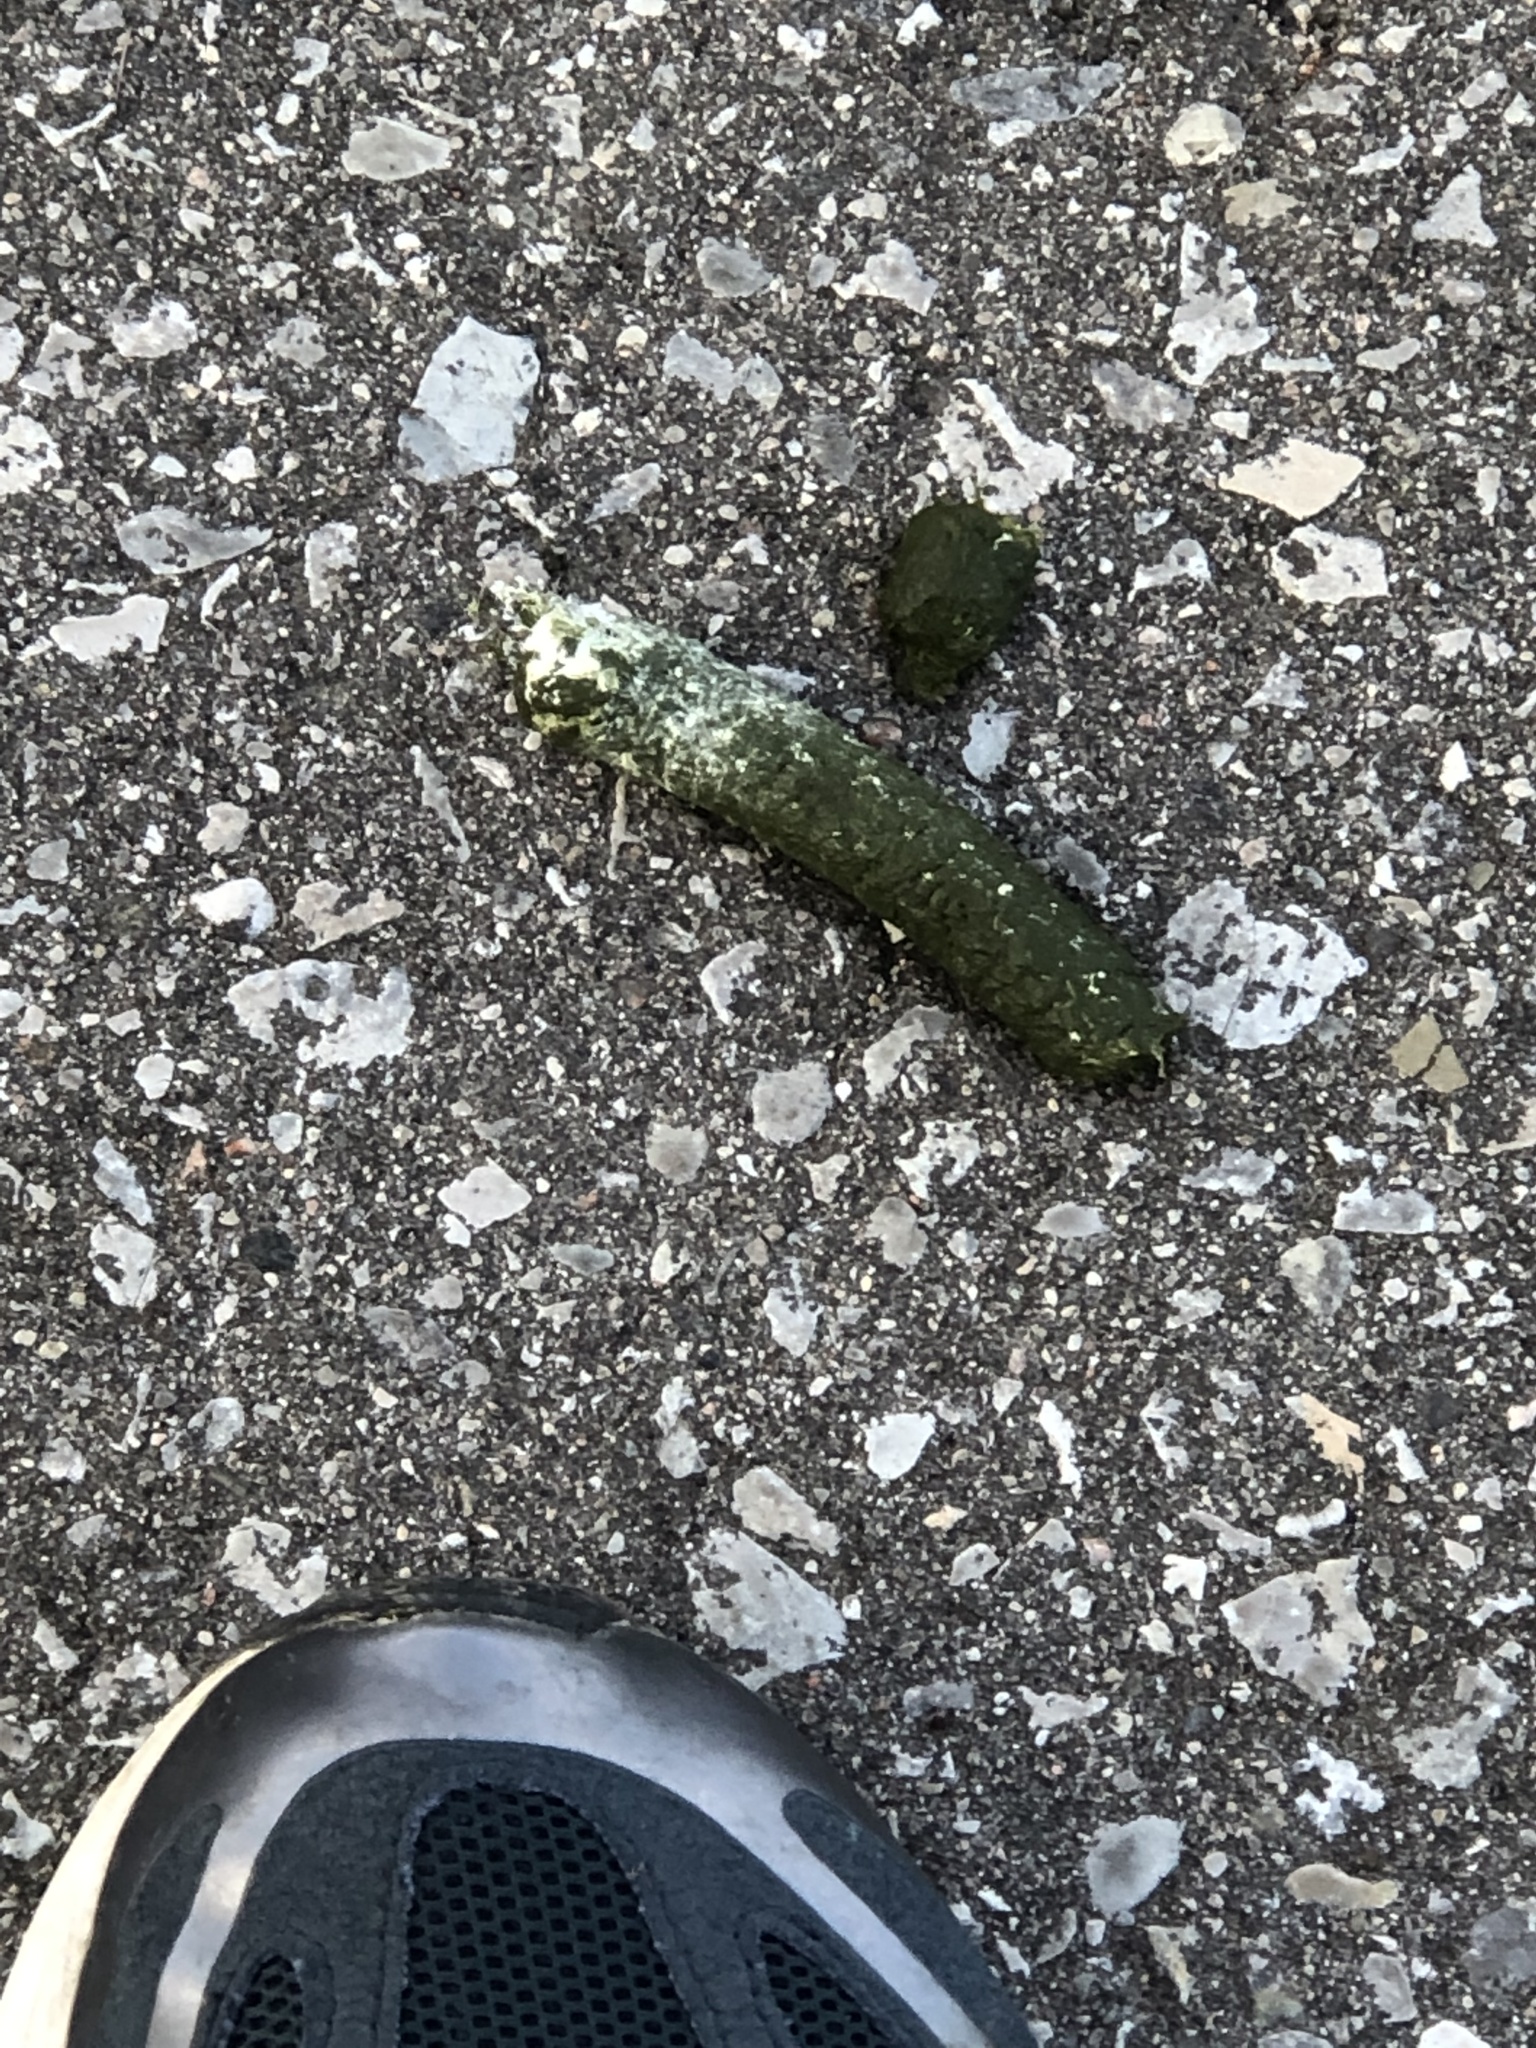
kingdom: Animalia
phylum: Chordata
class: Aves
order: Anseriformes
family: Anatidae
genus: Branta
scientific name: Branta canadensis
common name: Canada goose
